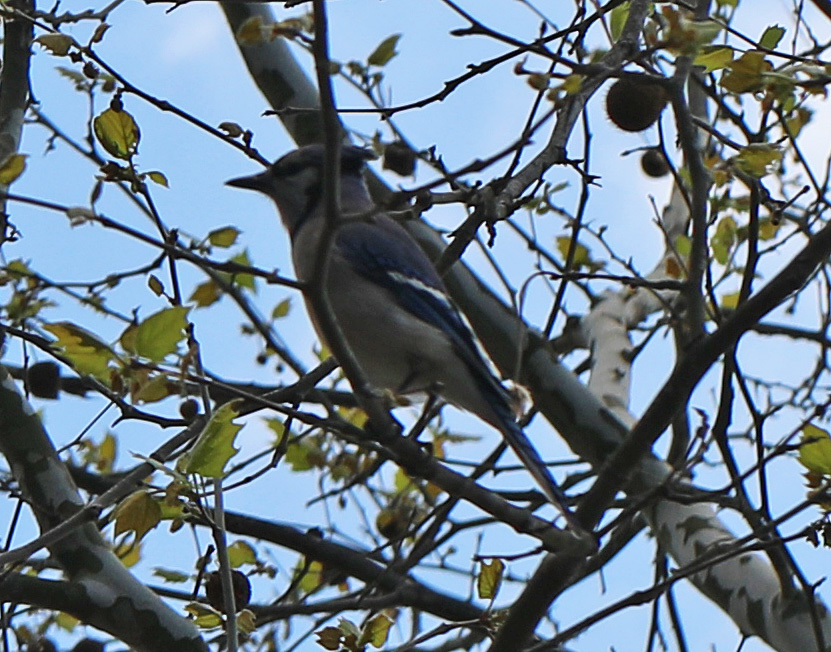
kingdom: Animalia
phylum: Chordata
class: Aves
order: Passeriformes
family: Corvidae
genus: Cyanocitta
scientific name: Cyanocitta cristata
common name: Blue jay
